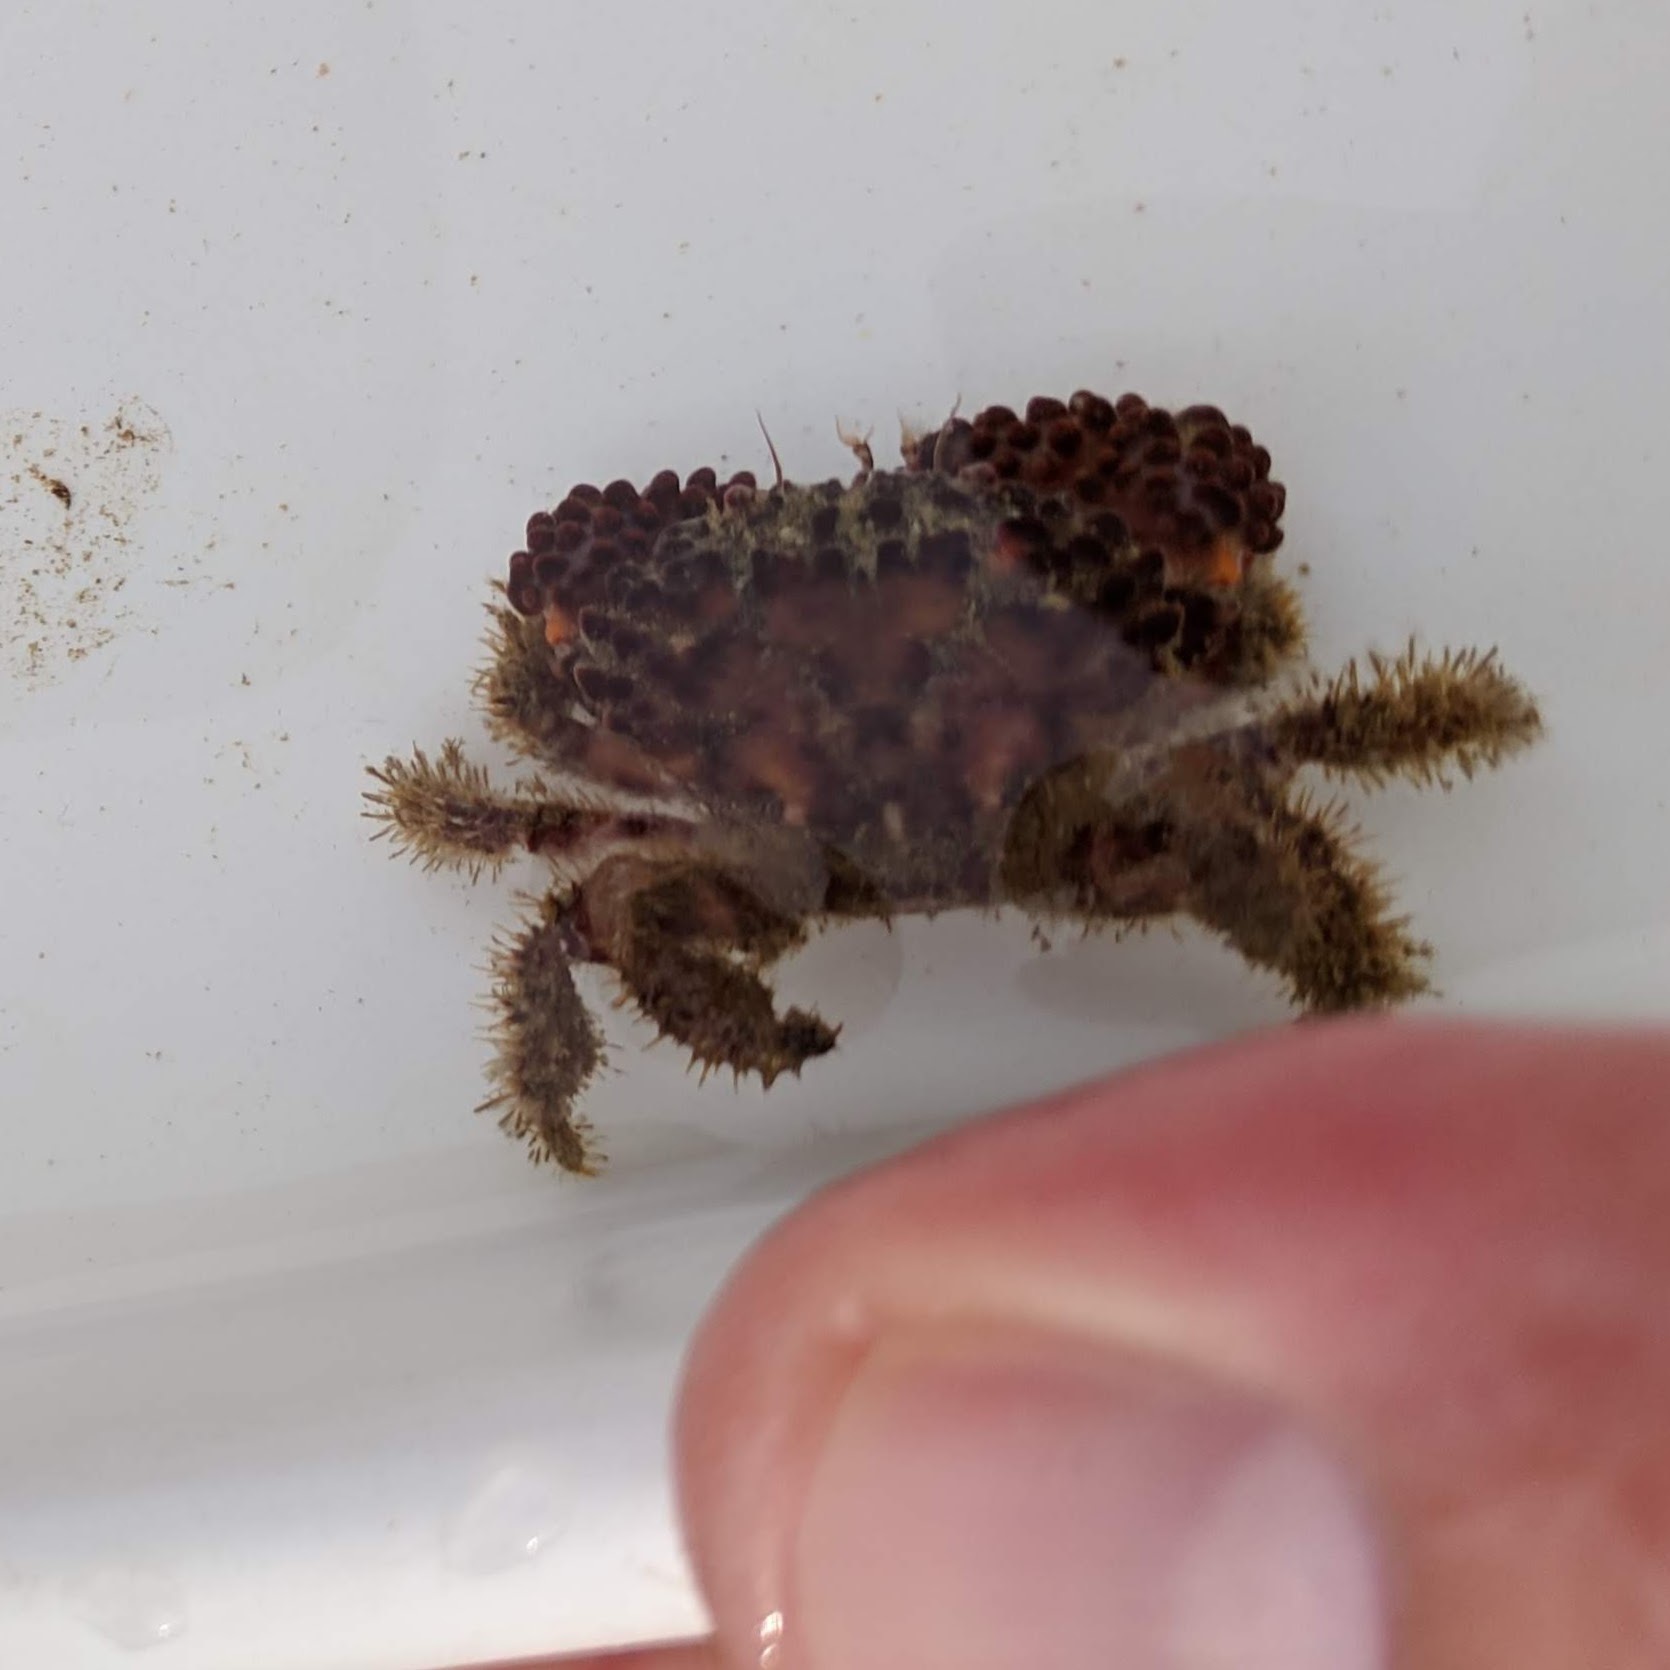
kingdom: Animalia
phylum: Arthropoda
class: Malacostraca
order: Decapoda
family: Xanthidae
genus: Paraxanthias
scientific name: Paraxanthias taylori
